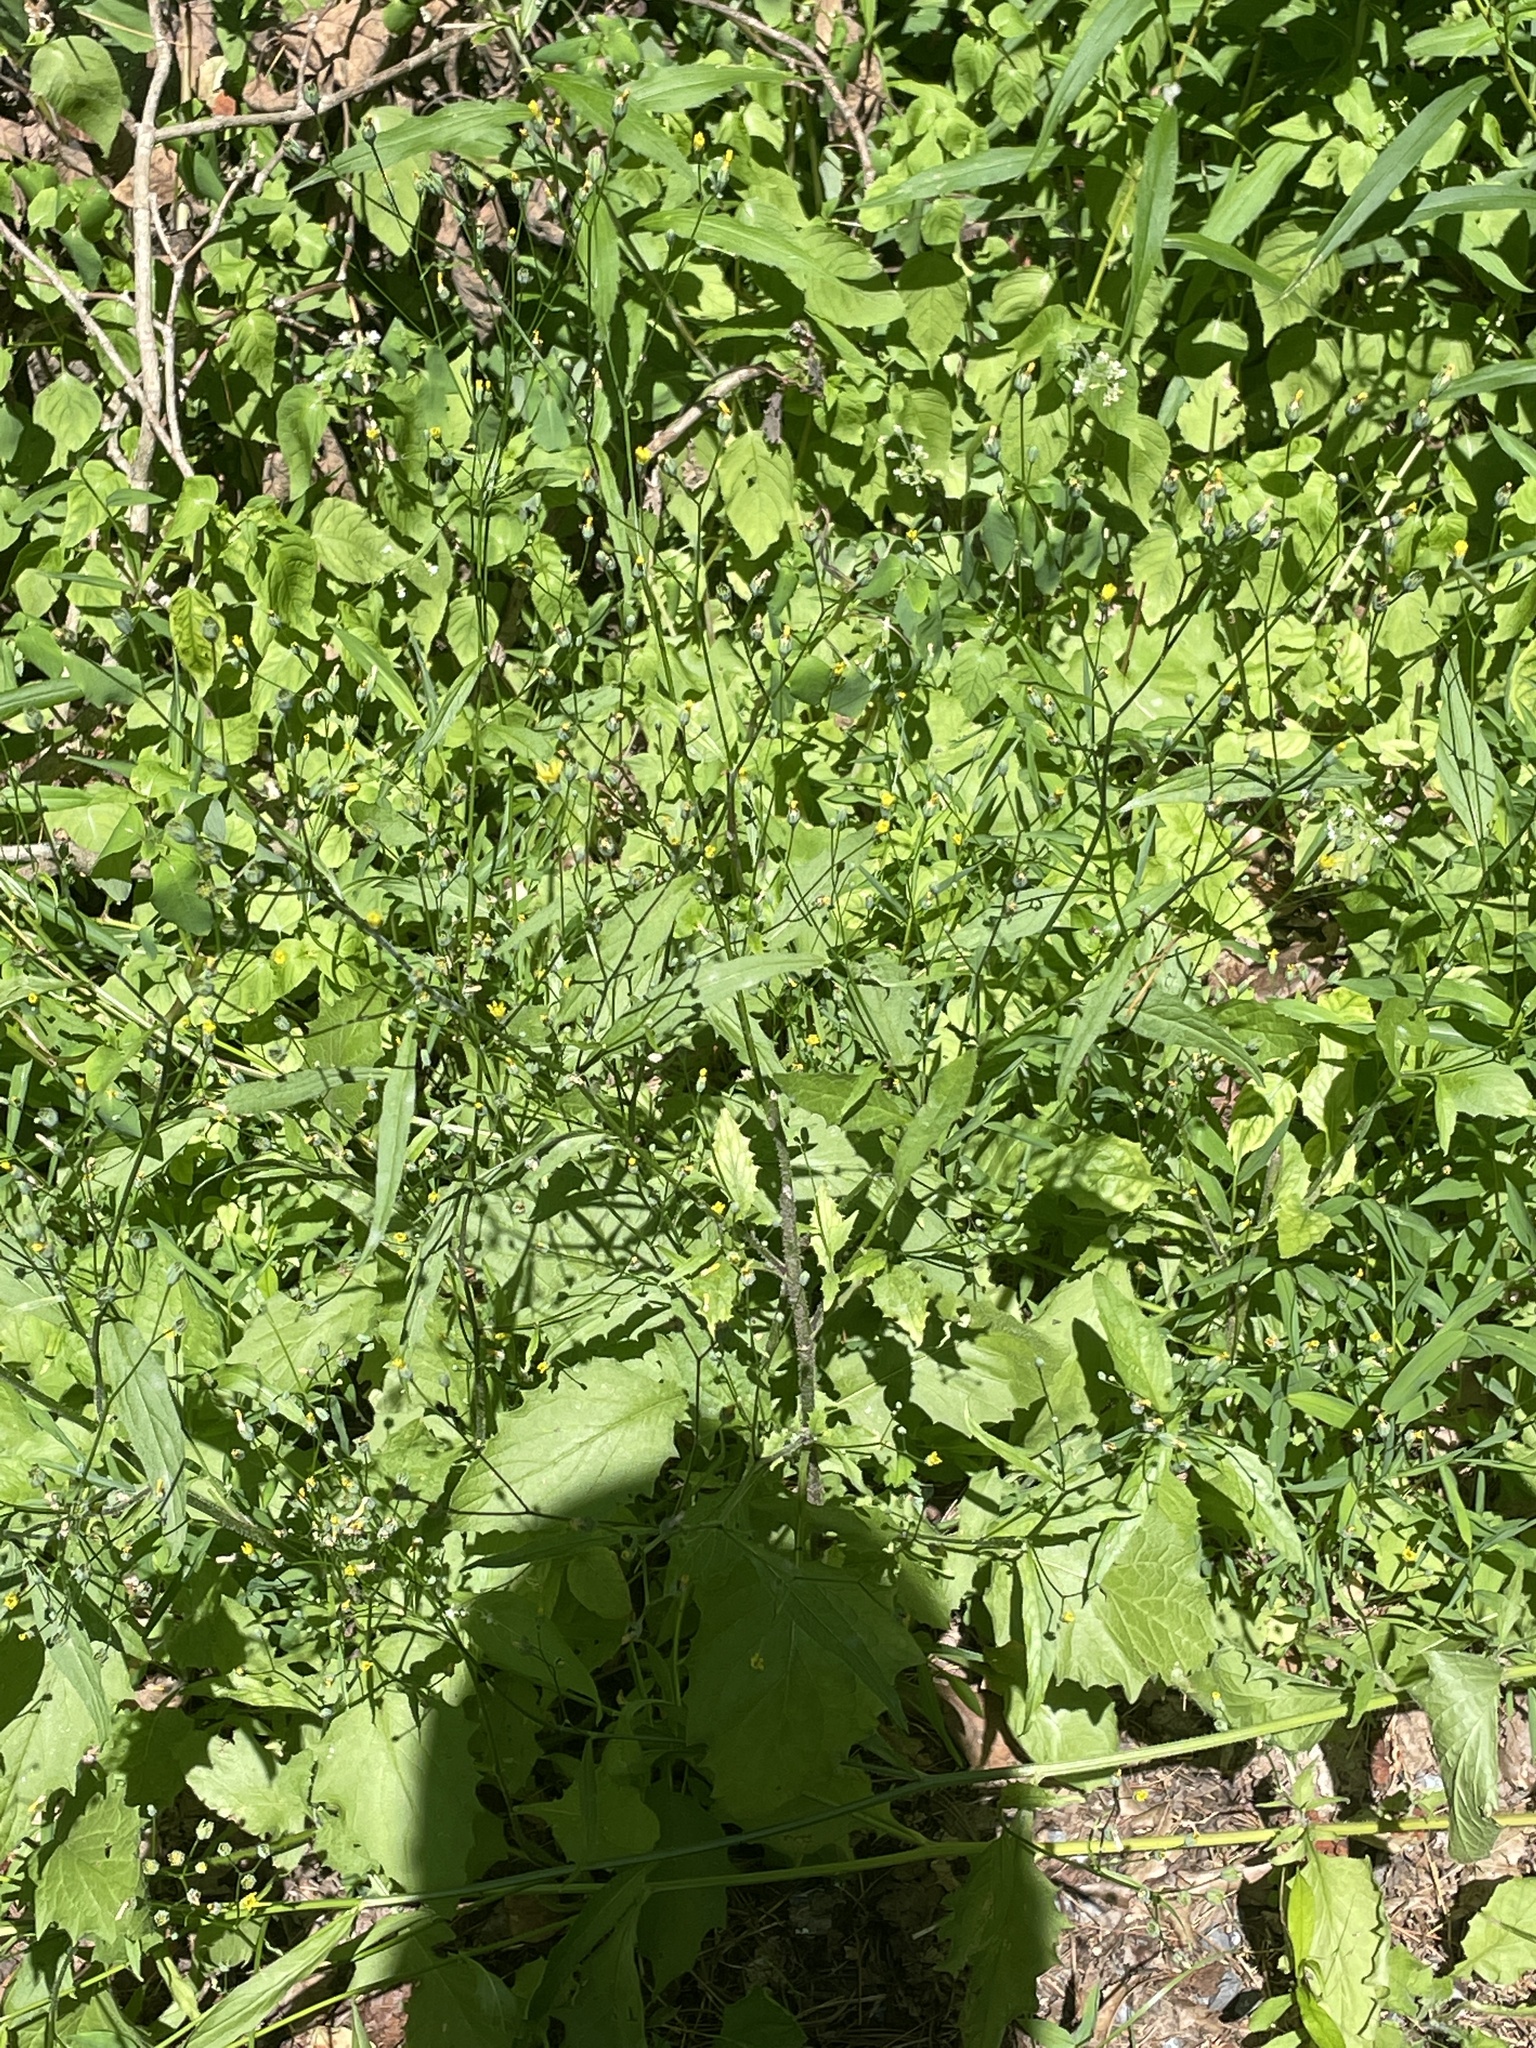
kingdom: Plantae
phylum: Tracheophyta
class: Magnoliopsida
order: Asterales
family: Asteraceae
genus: Lapsana
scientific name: Lapsana communis
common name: Nipplewort
